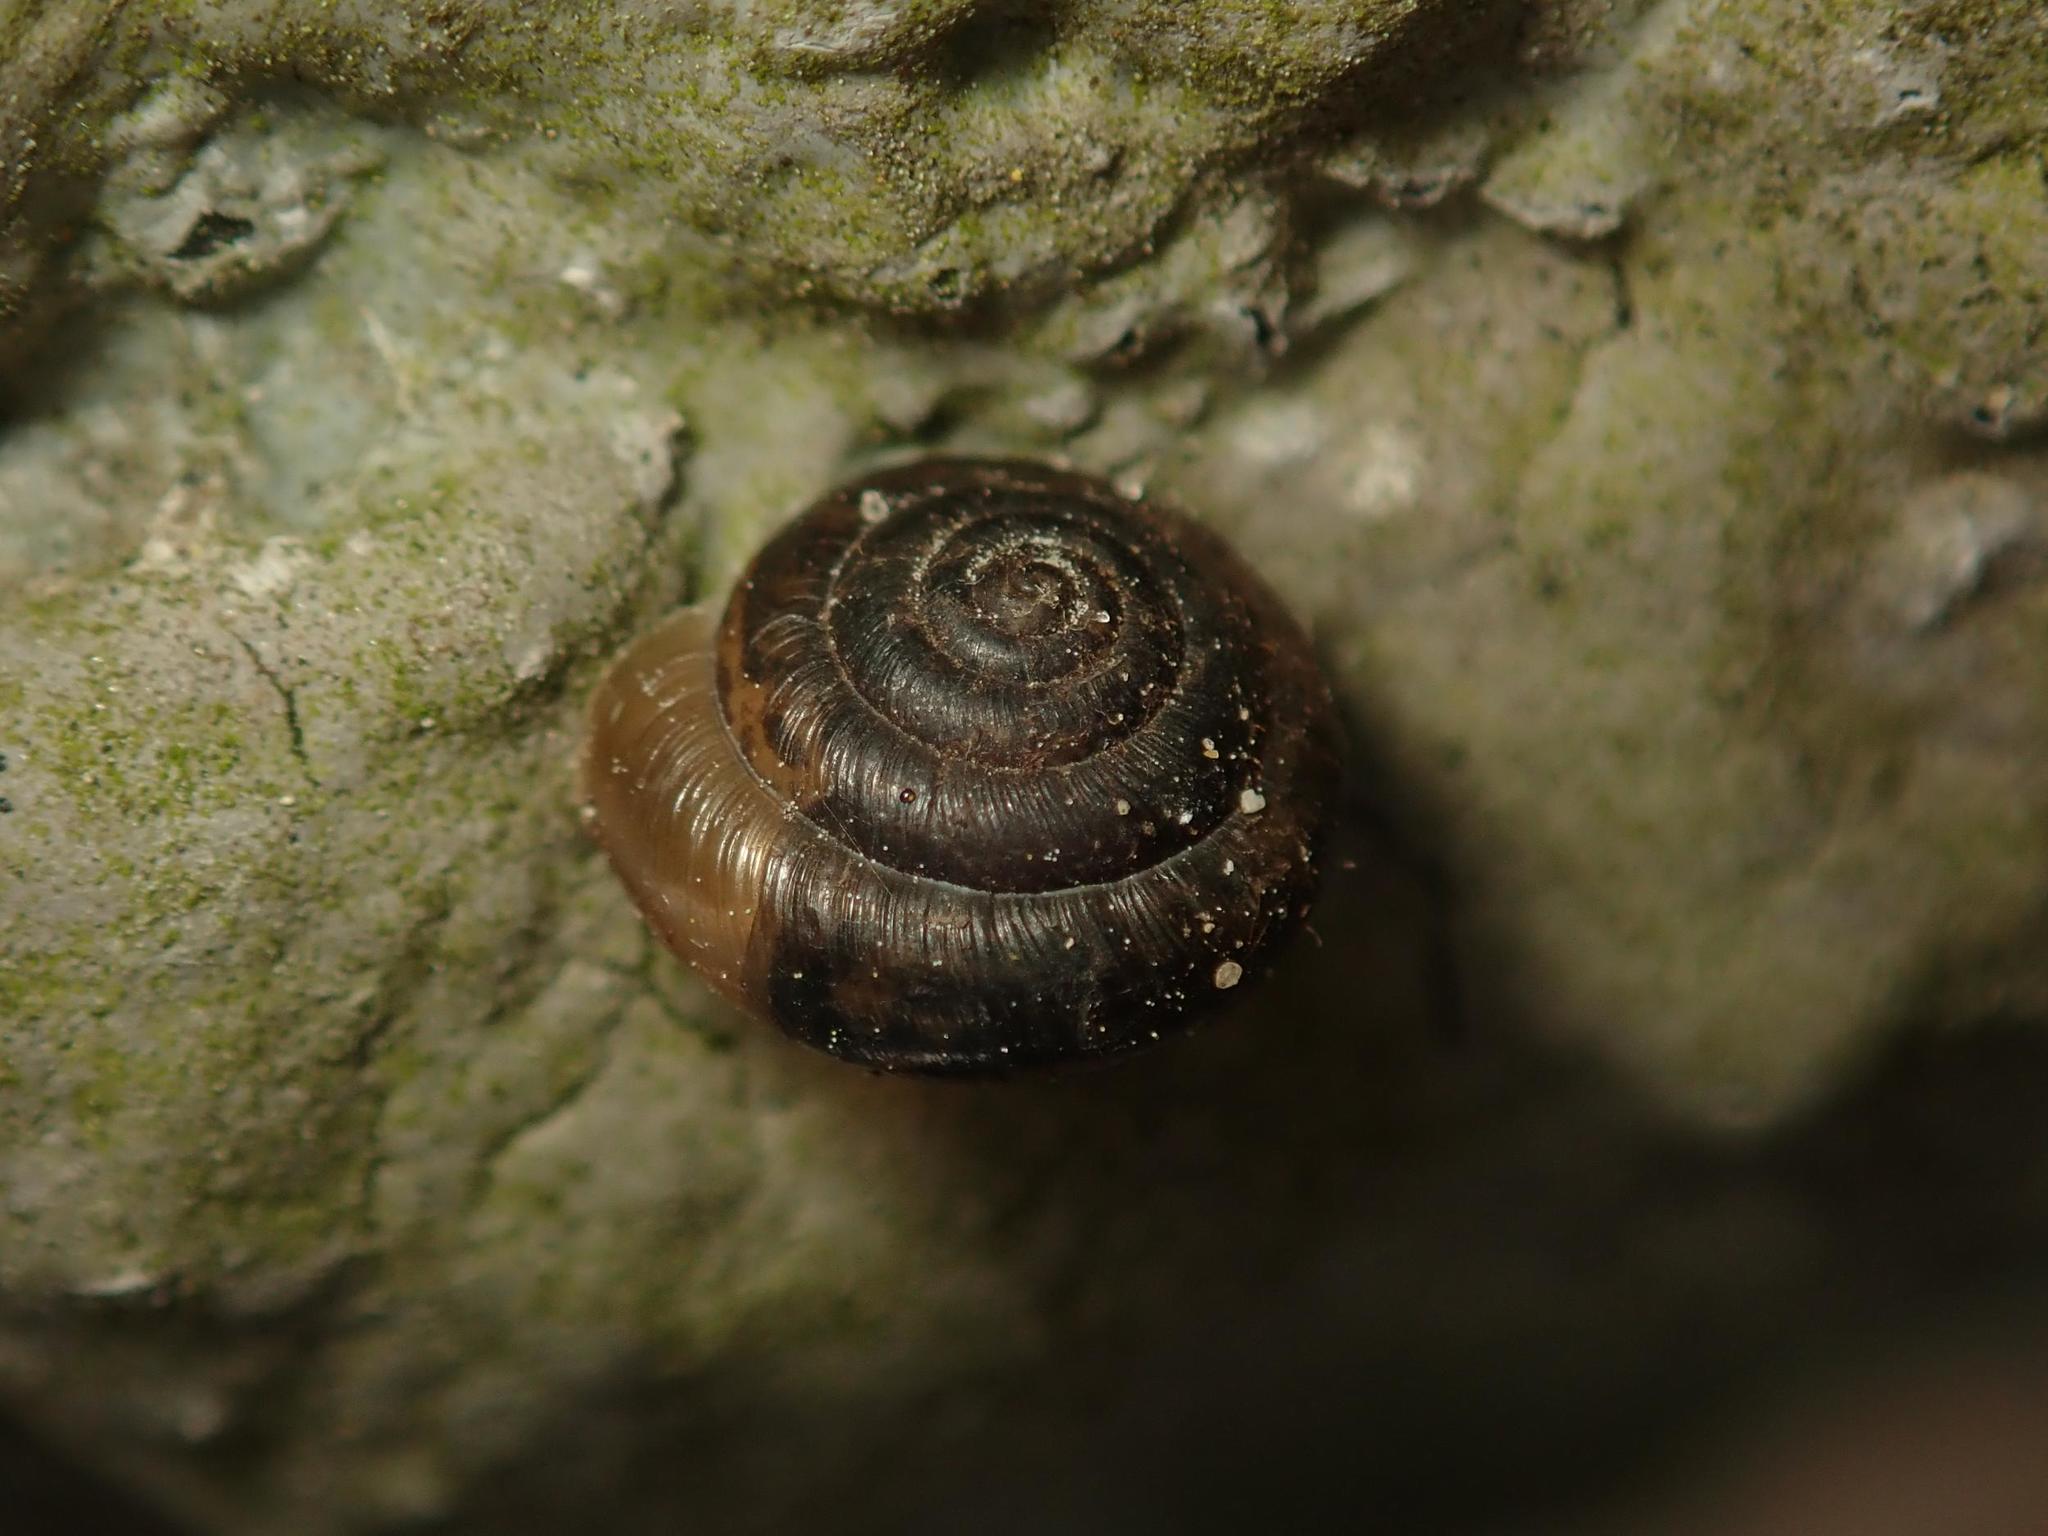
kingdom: Animalia
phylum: Mollusca
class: Gastropoda
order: Stylommatophora
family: Hygromiidae
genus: Trochulus
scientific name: Trochulus hispidus
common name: Hairy snail
